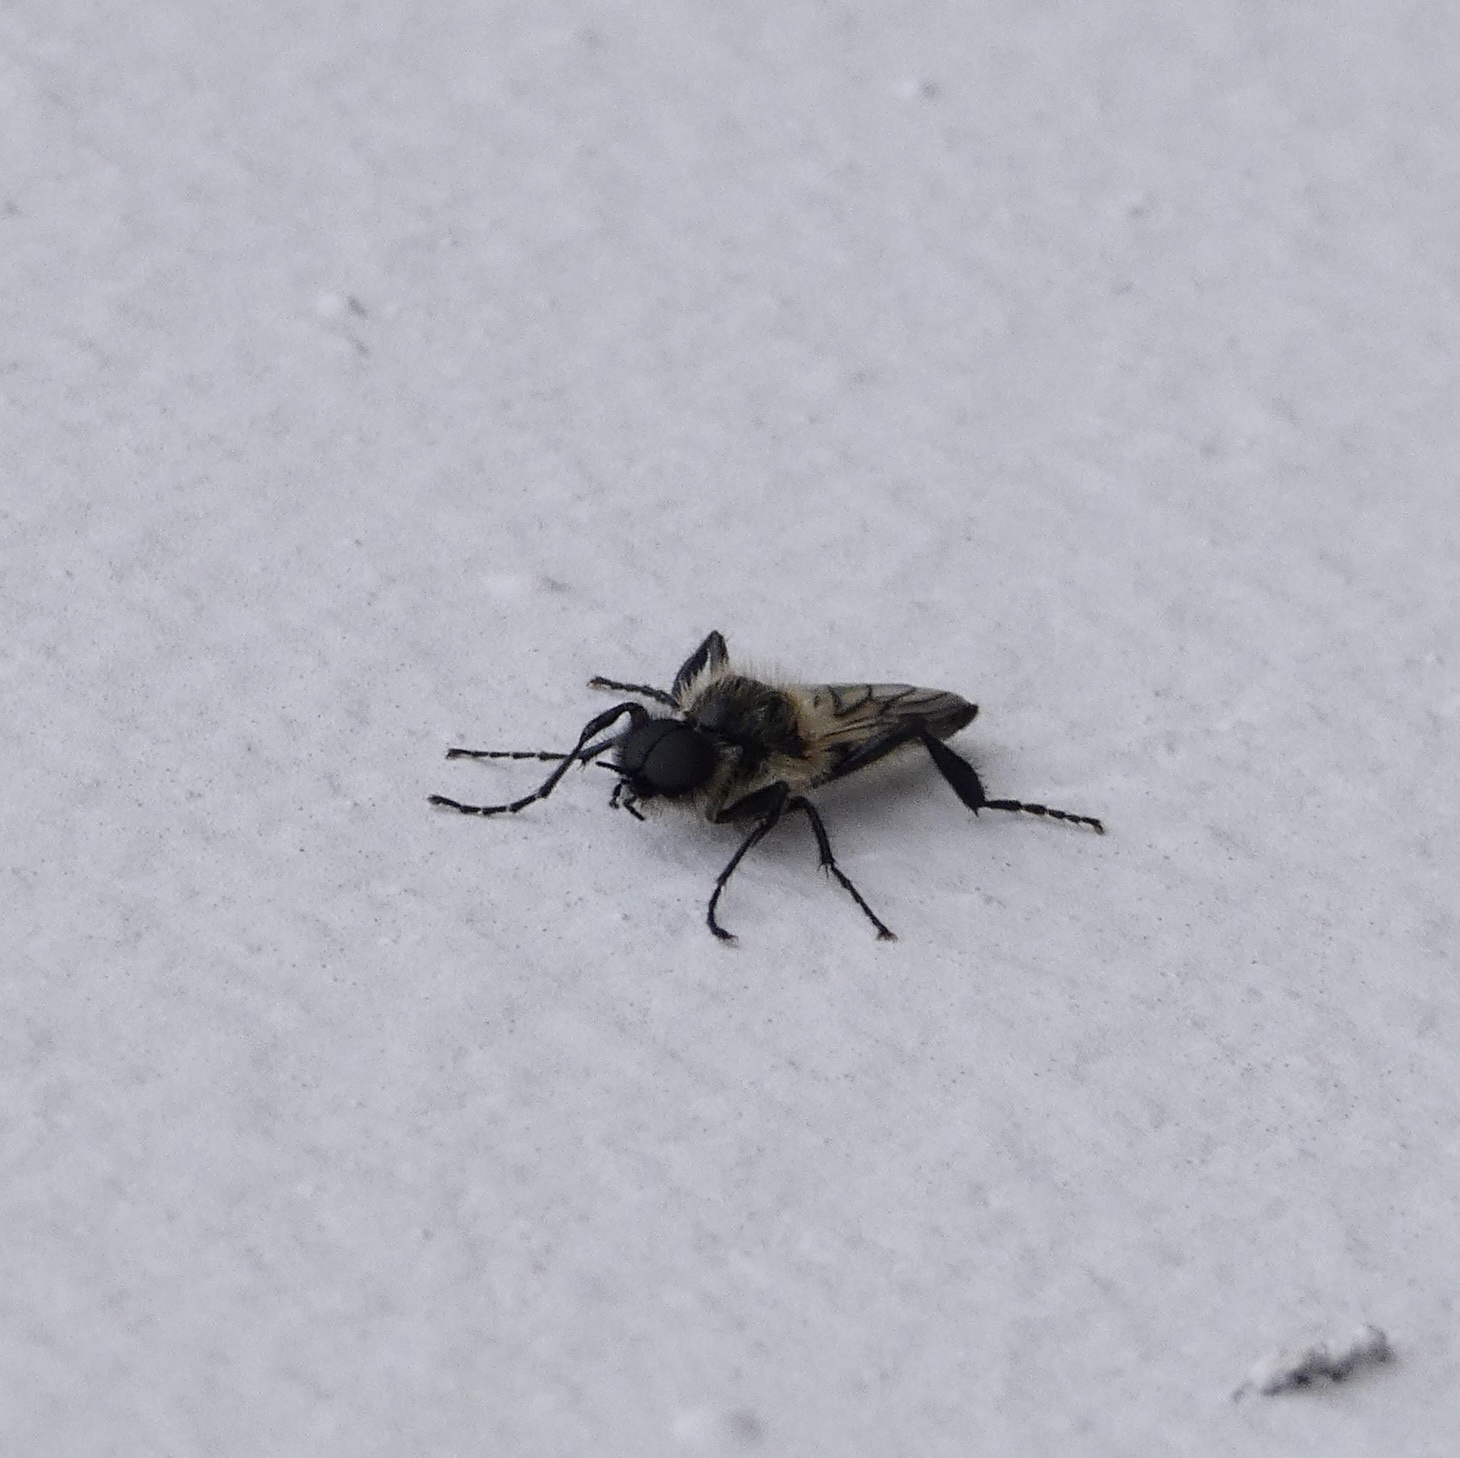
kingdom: Animalia
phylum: Arthropoda
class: Insecta
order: Diptera
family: Bibionidae
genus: Bibio
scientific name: Bibio albipennis
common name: White-winged march fly
